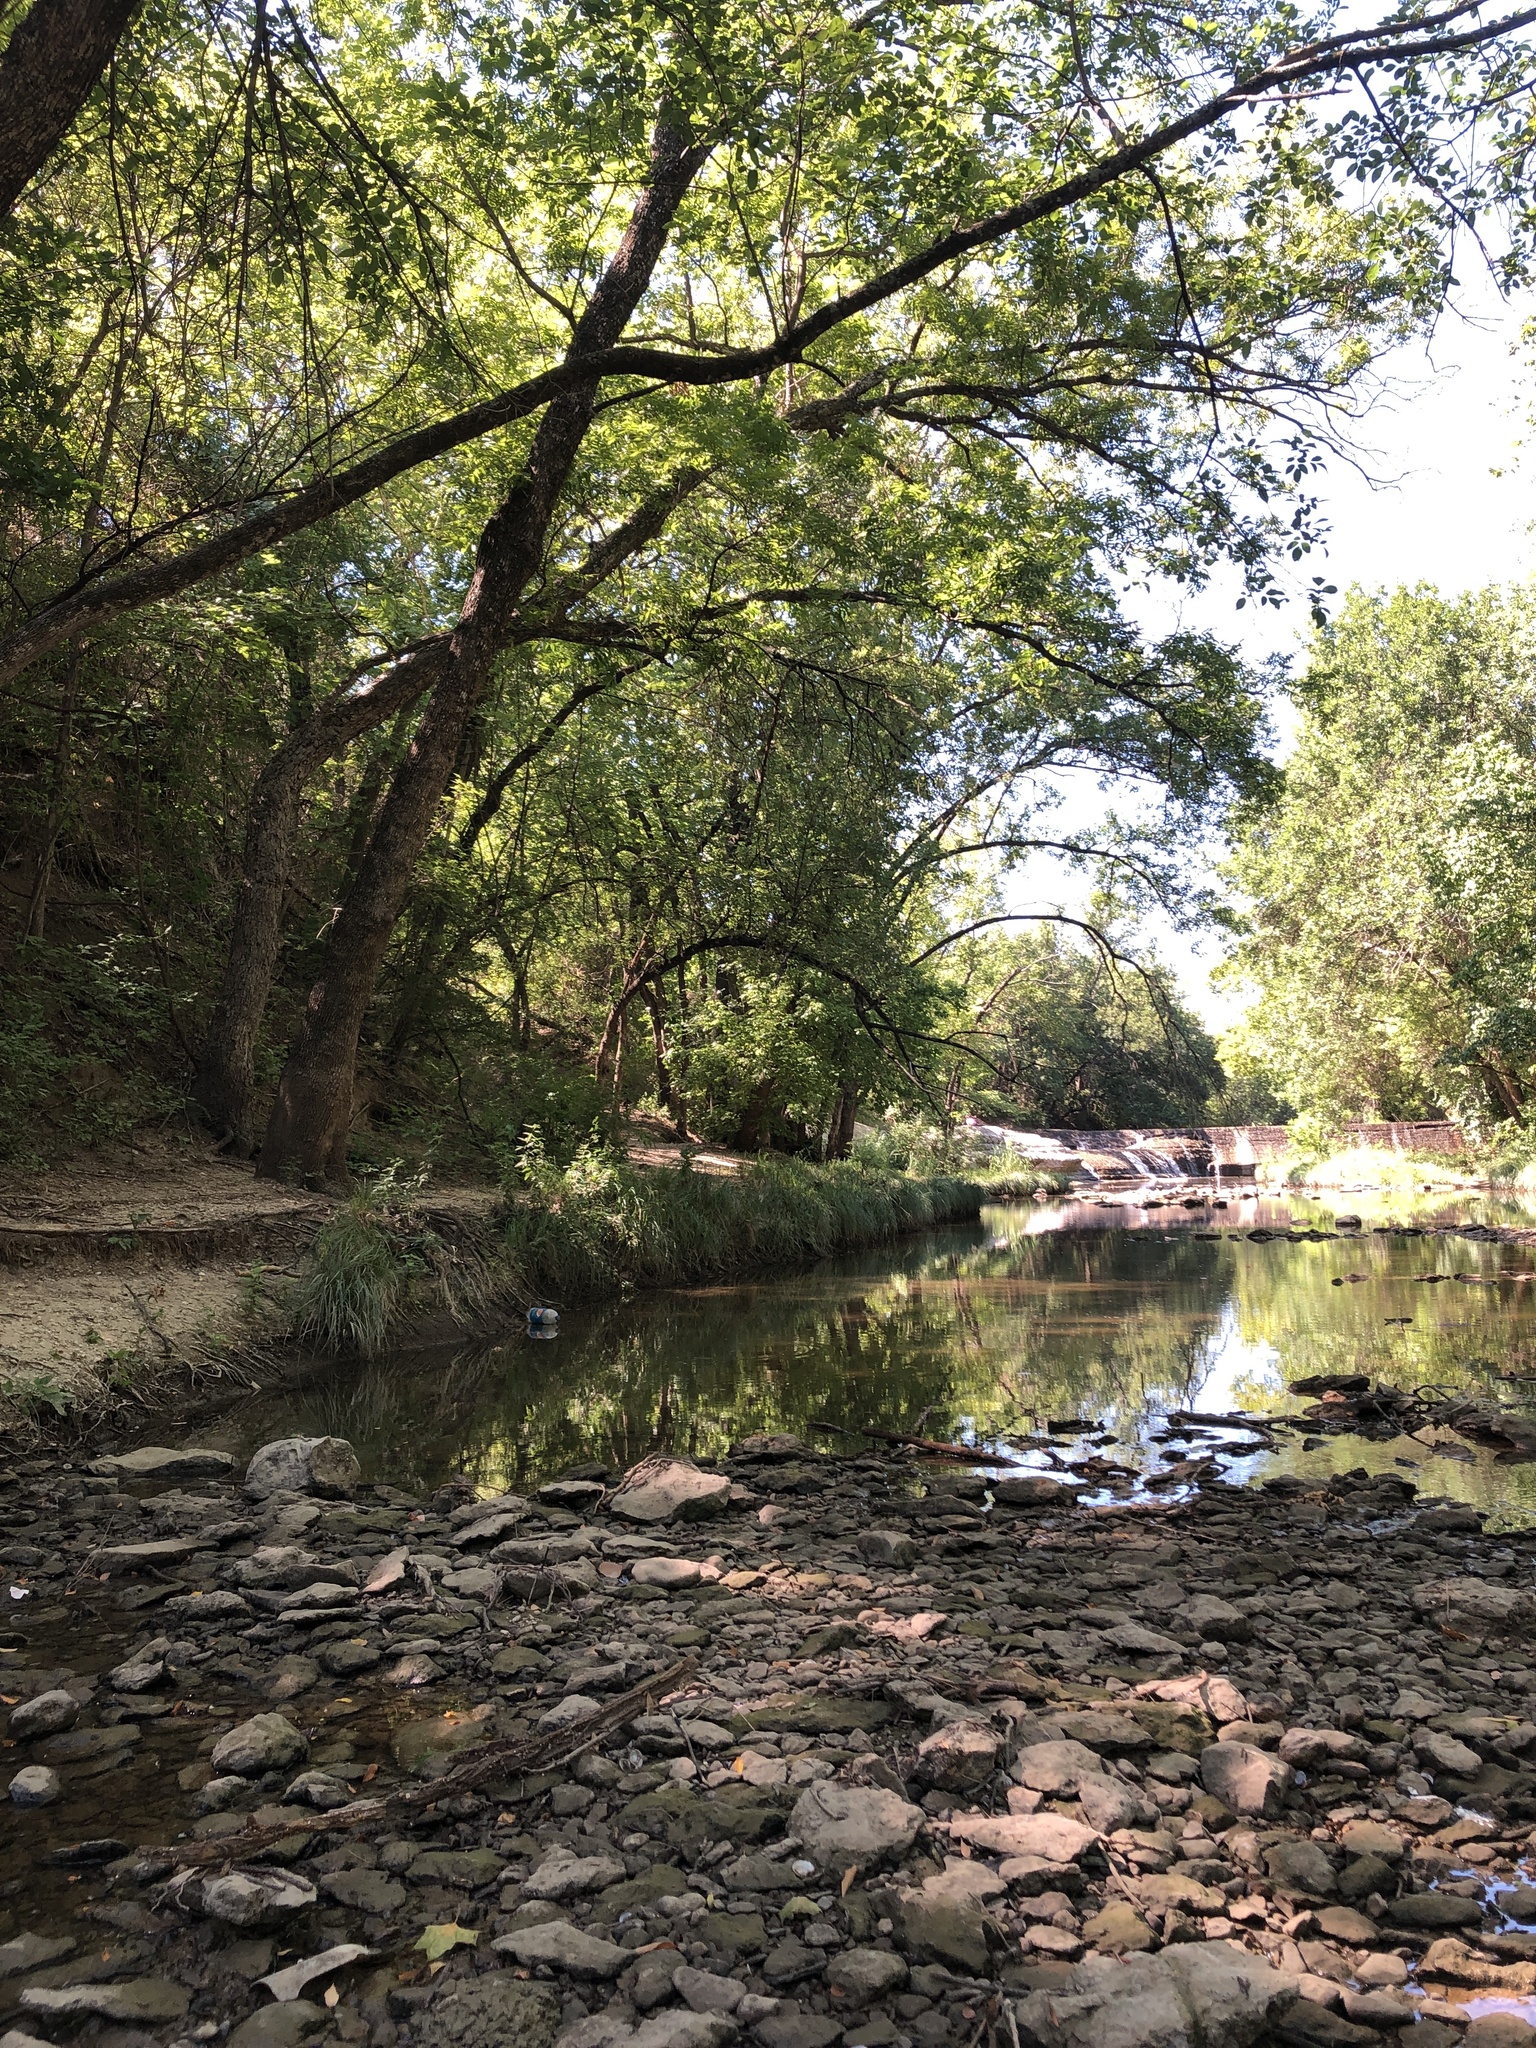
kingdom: Animalia
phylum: Chordata
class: Aves
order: Passeriformes
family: Vireonidae
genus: Vireo
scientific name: Vireo griseus
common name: White-eyed vireo
